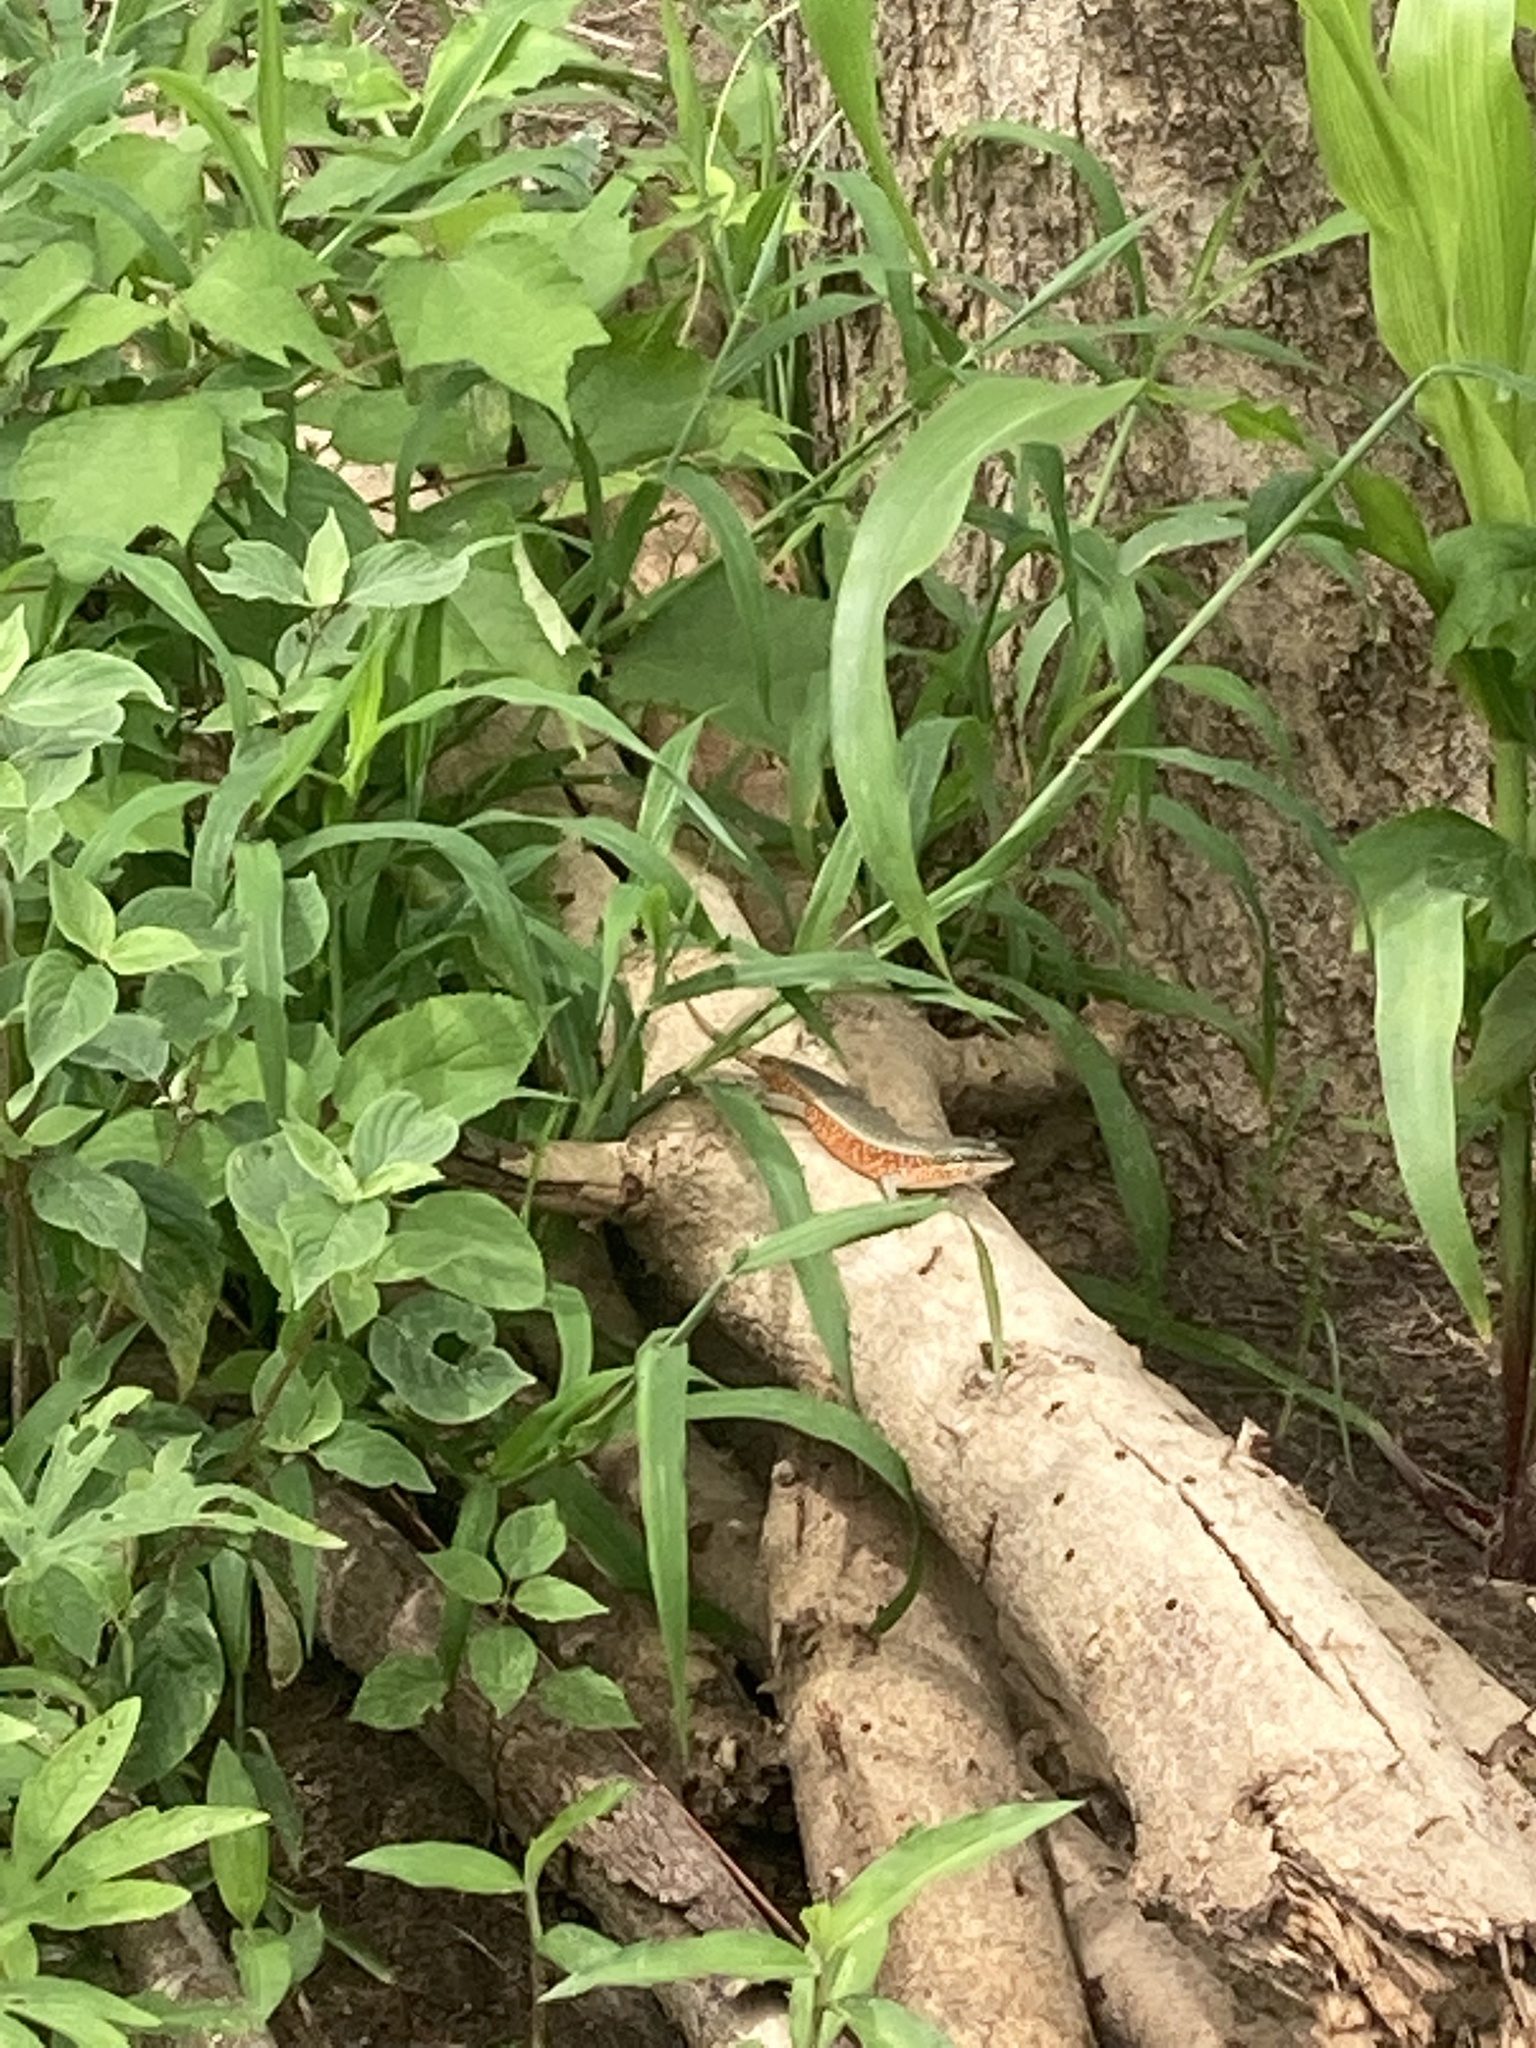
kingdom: Animalia
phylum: Chordata
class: Squamata
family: Scincidae
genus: Trachylepis
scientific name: Trachylepis perrotetii
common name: Teita mabuya
